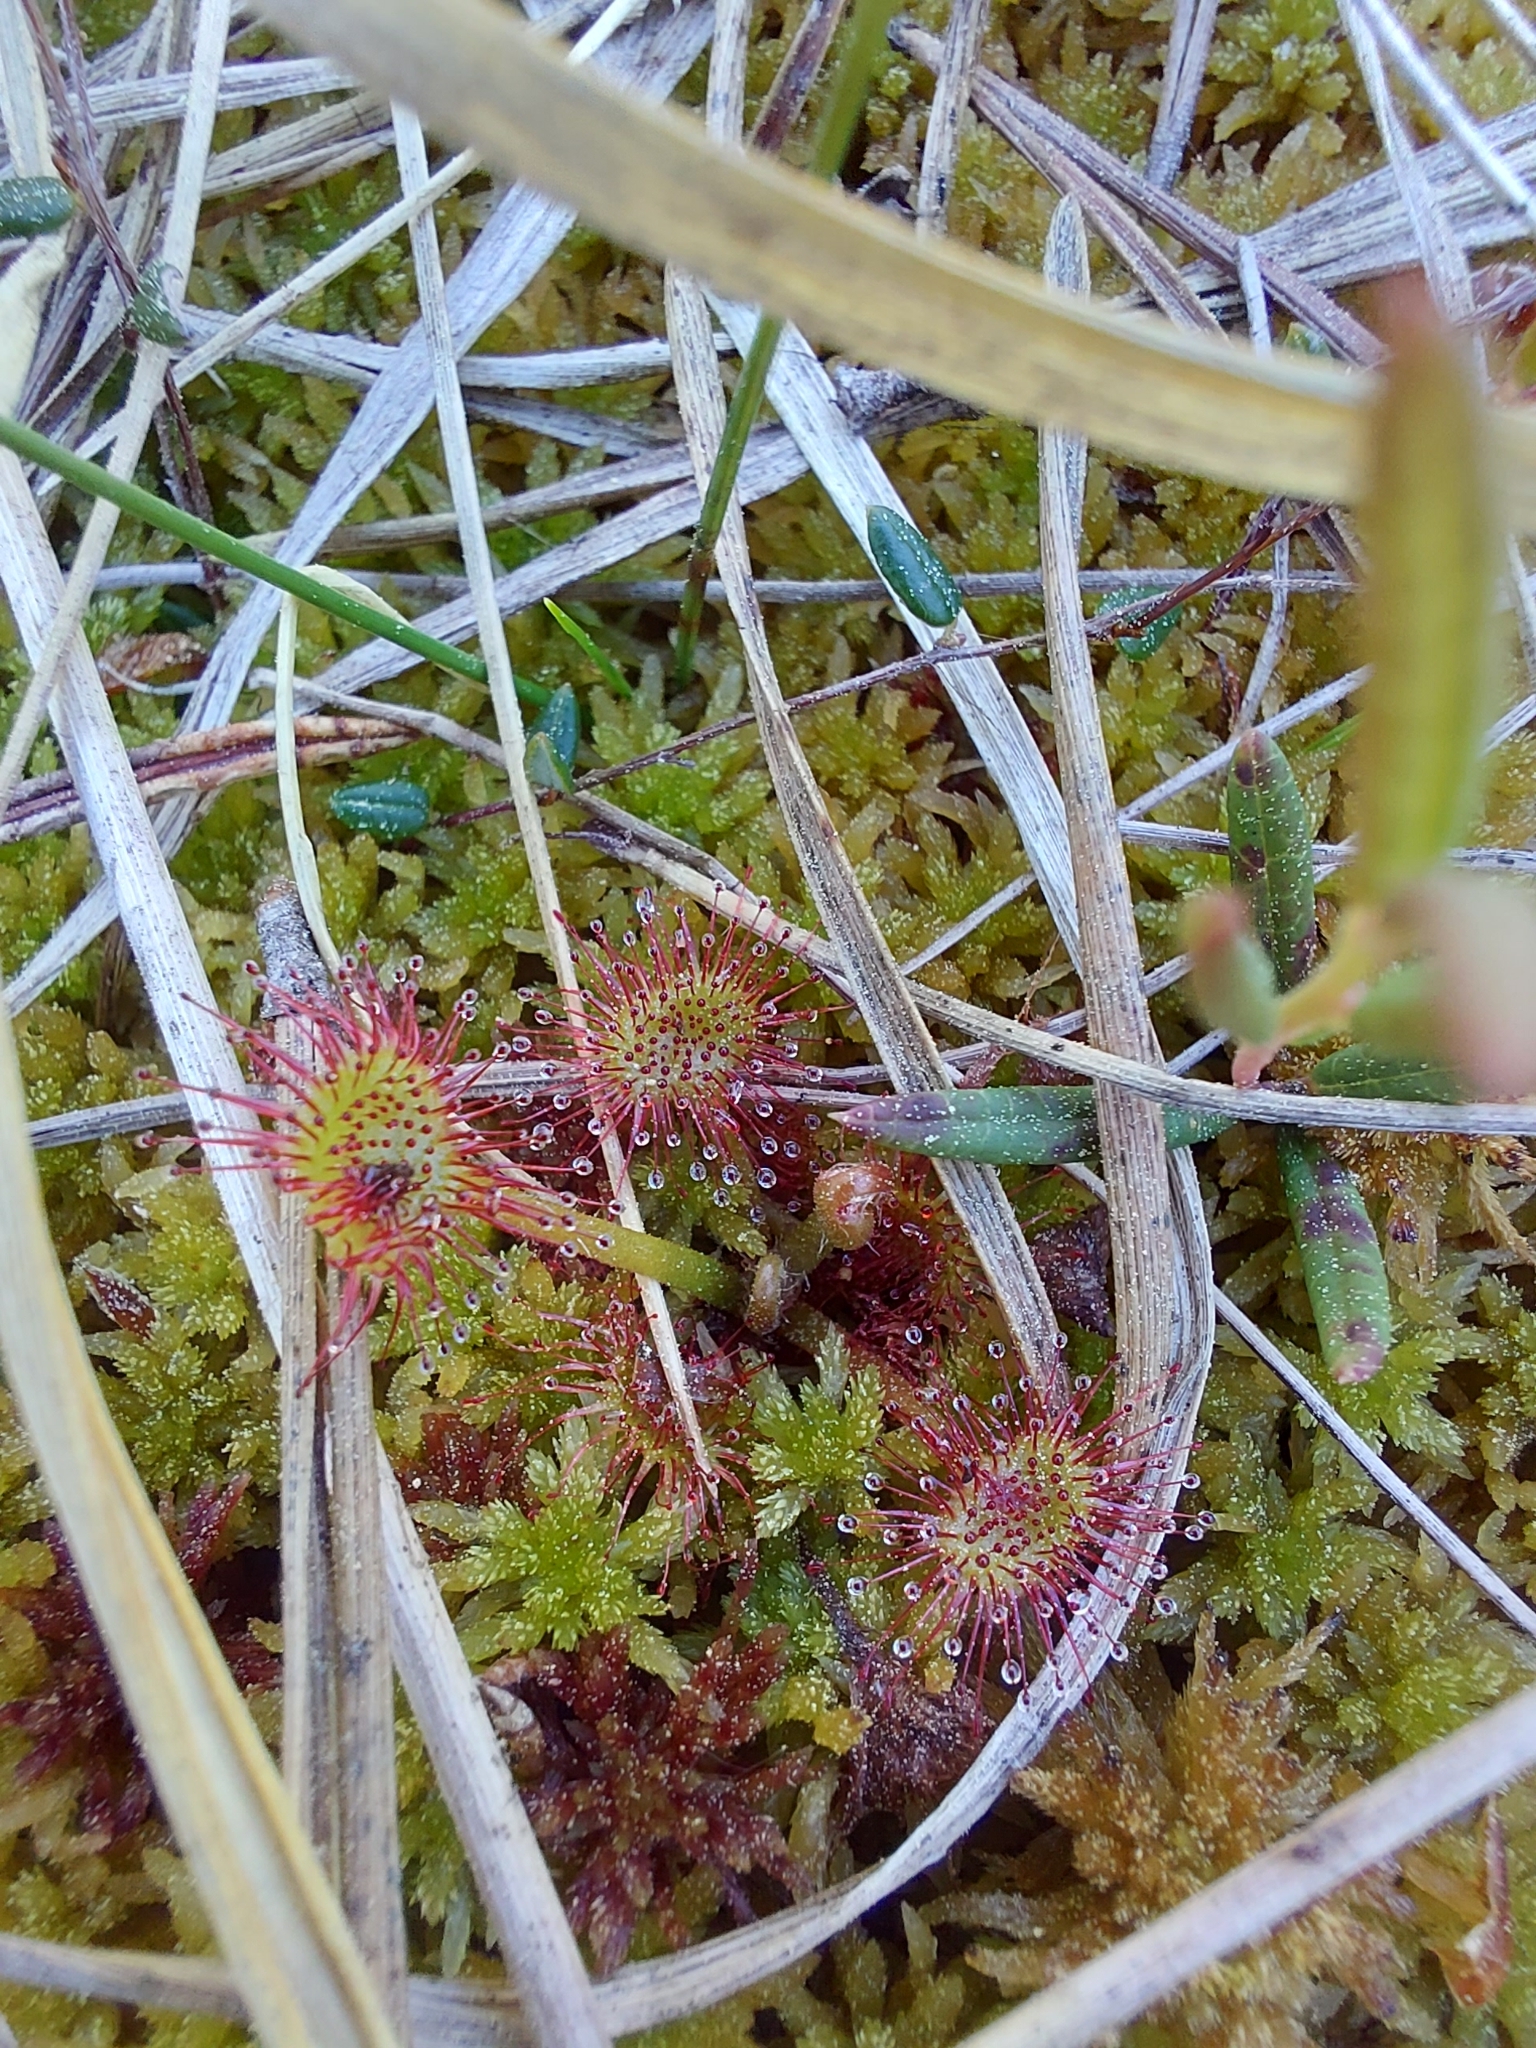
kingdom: Plantae
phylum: Tracheophyta
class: Magnoliopsida
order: Caryophyllales
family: Droseraceae
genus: Drosera
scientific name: Drosera rotundifolia
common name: Round-leaved sundew
